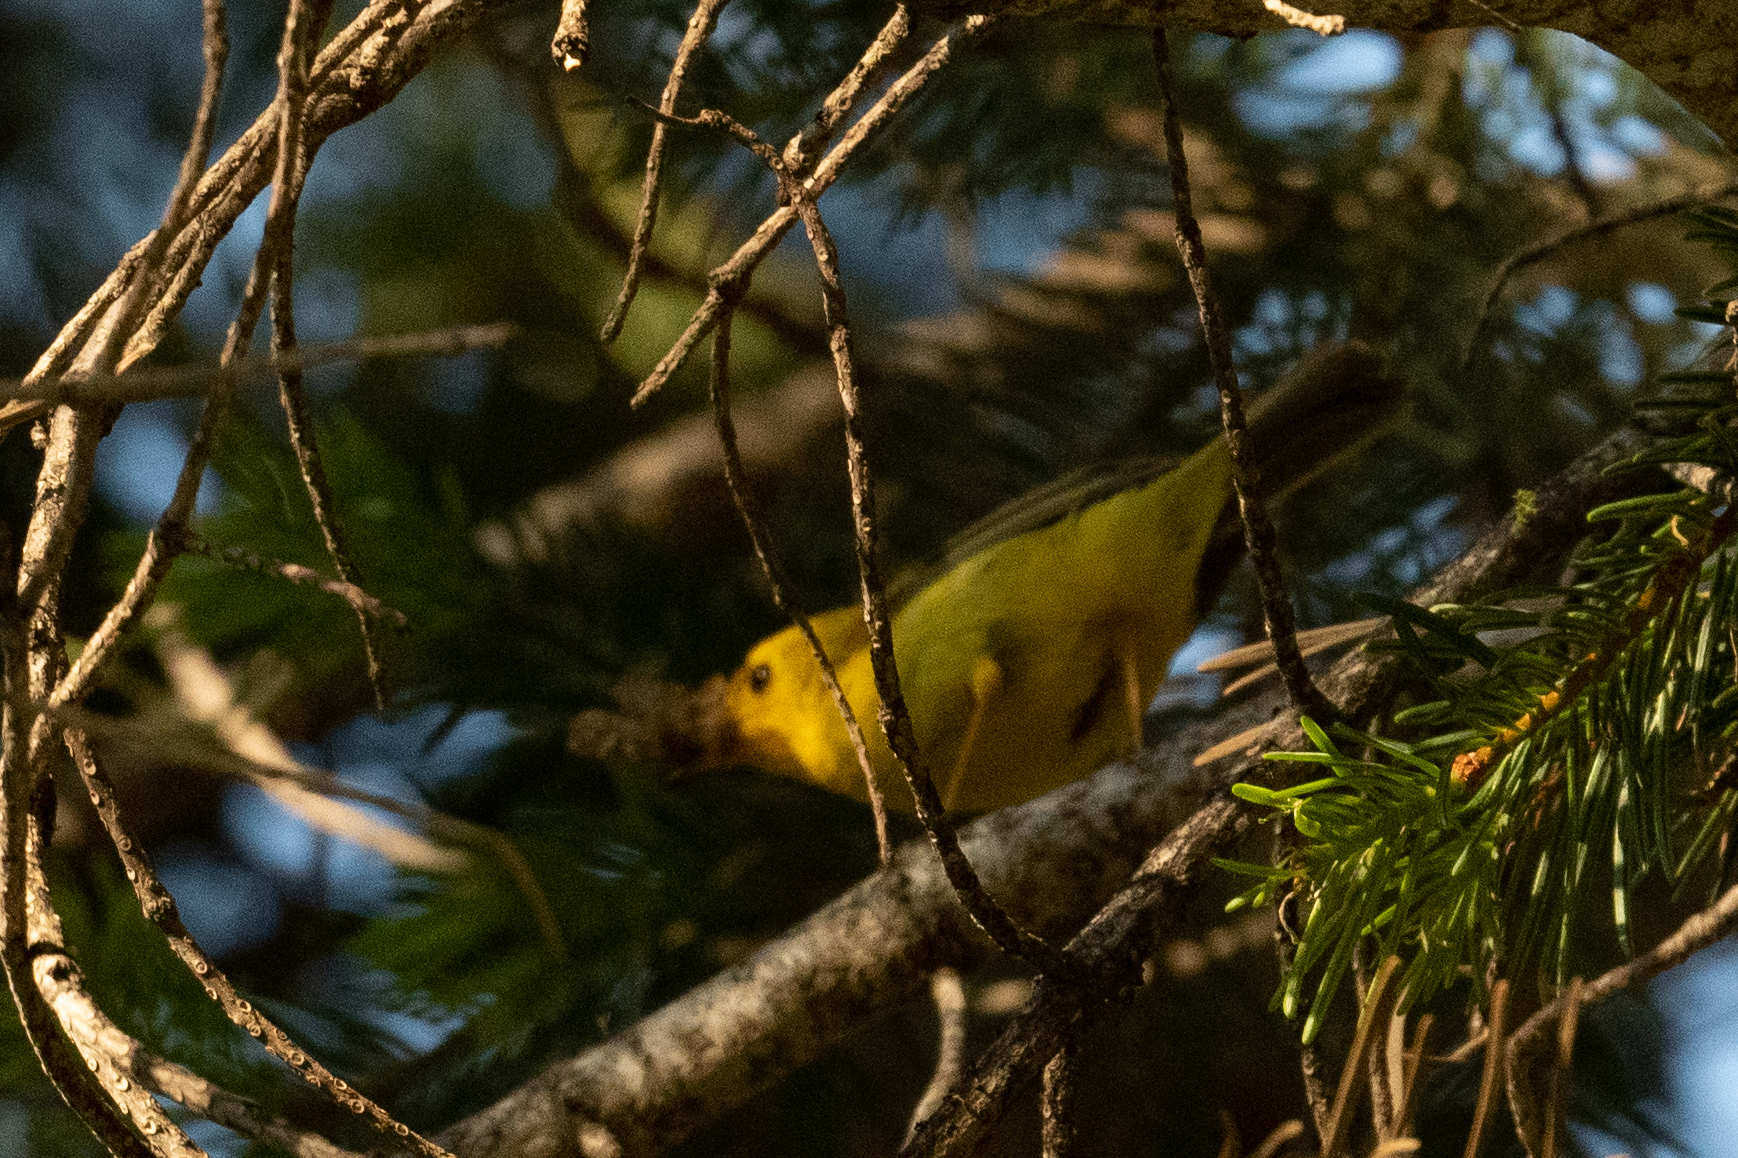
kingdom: Animalia
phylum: Chordata
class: Aves
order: Passeriformes
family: Parulidae
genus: Cardellina
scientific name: Cardellina pusilla
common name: Wilson's warbler
